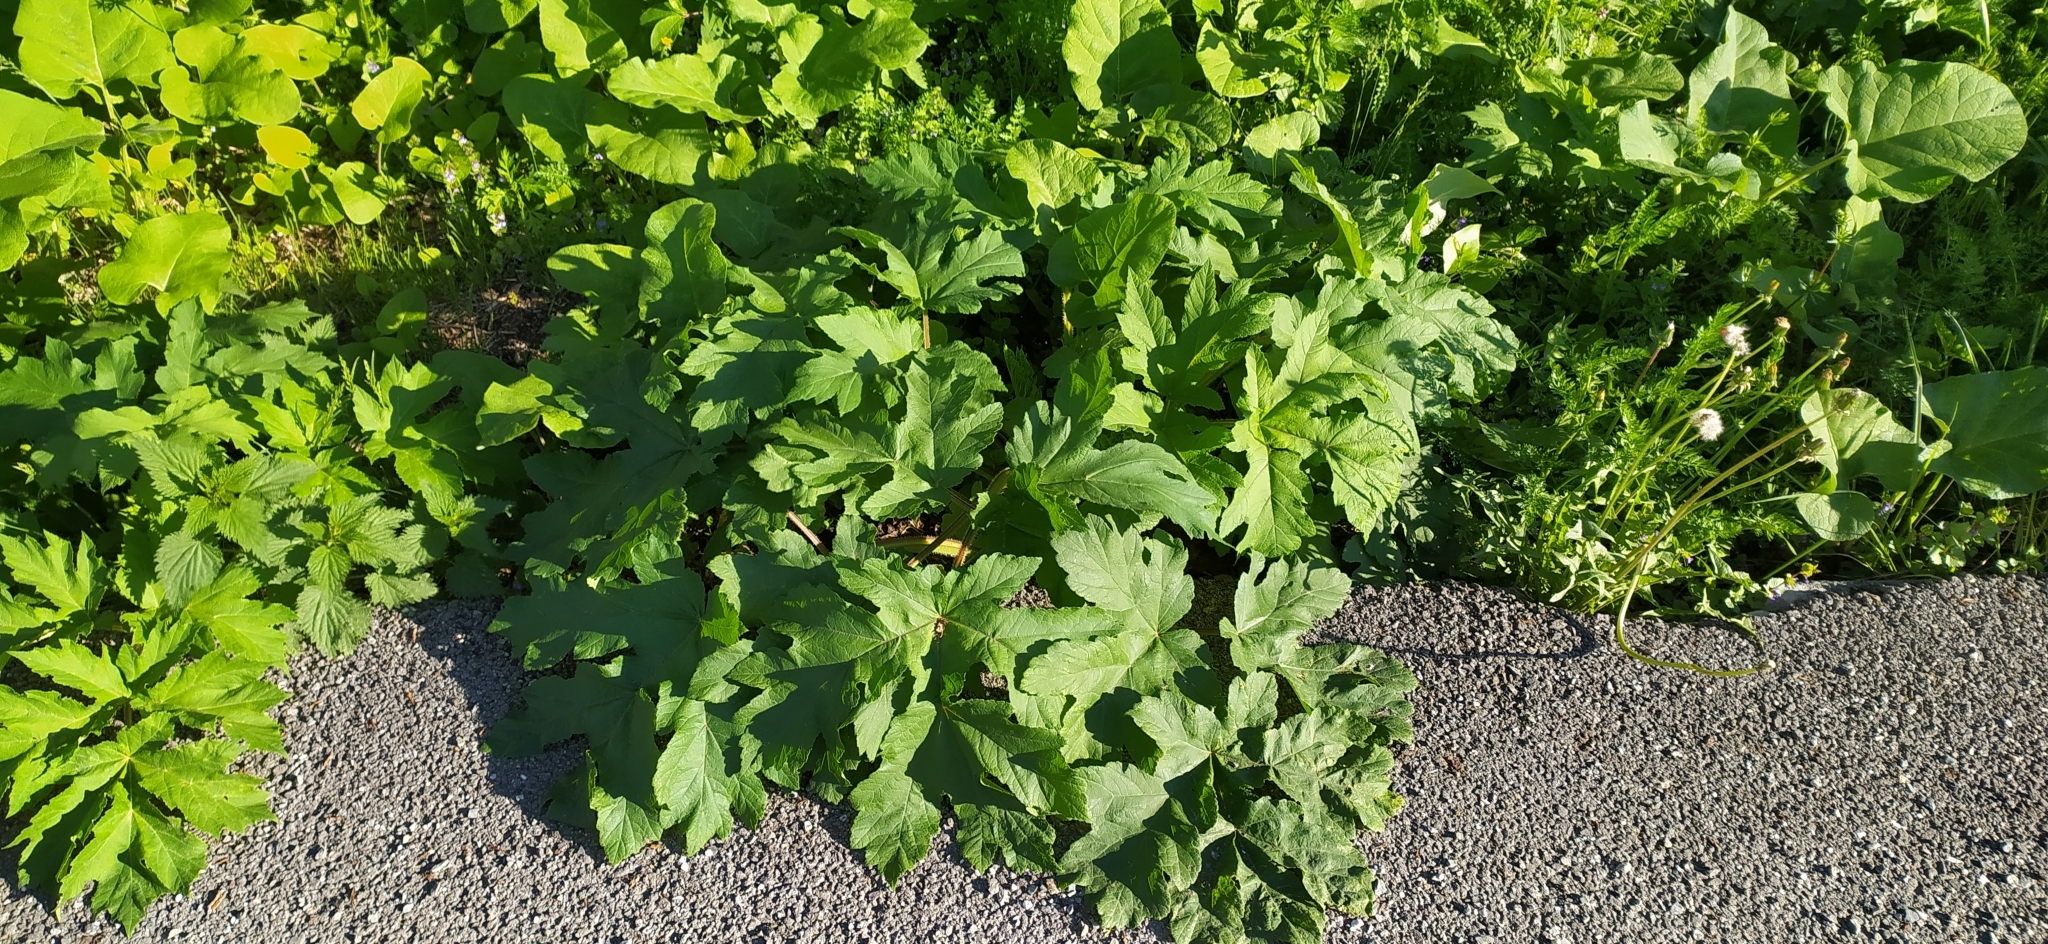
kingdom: Plantae
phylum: Tracheophyta
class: Magnoliopsida
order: Apiales
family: Apiaceae
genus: Heracleum
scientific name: Heracleum sphondylium
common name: Hogweed
